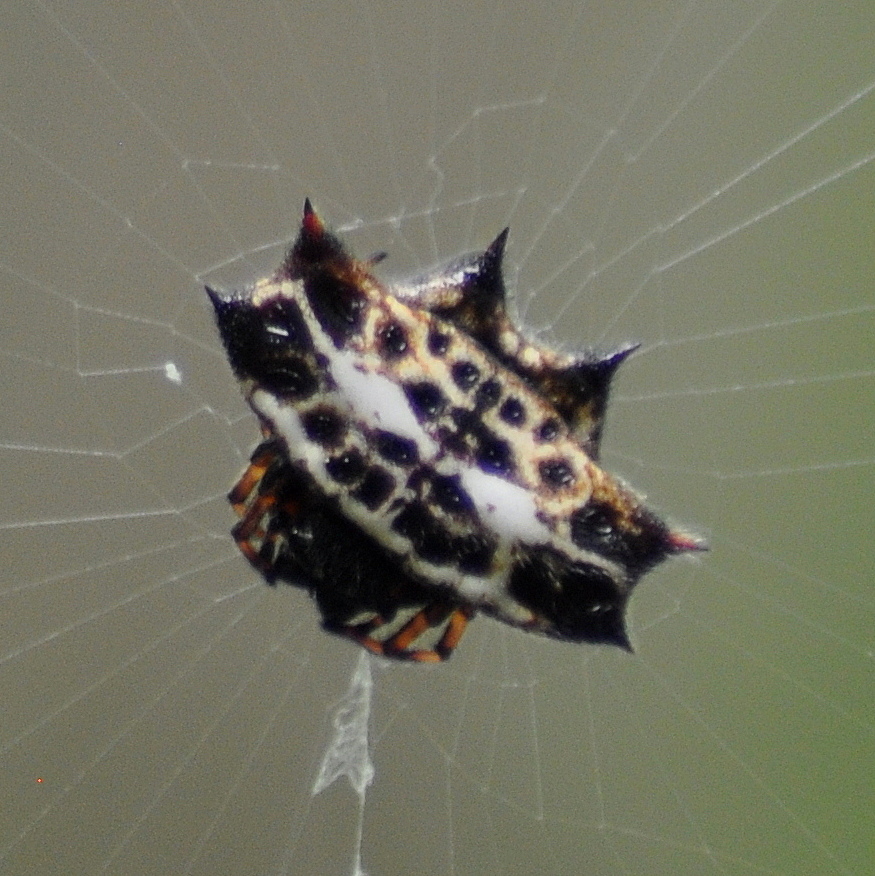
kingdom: Animalia
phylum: Arthropoda
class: Arachnida
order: Araneae
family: Araneidae
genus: Gasteracantha
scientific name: Gasteracantha cancriformis
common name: Orb weavers
